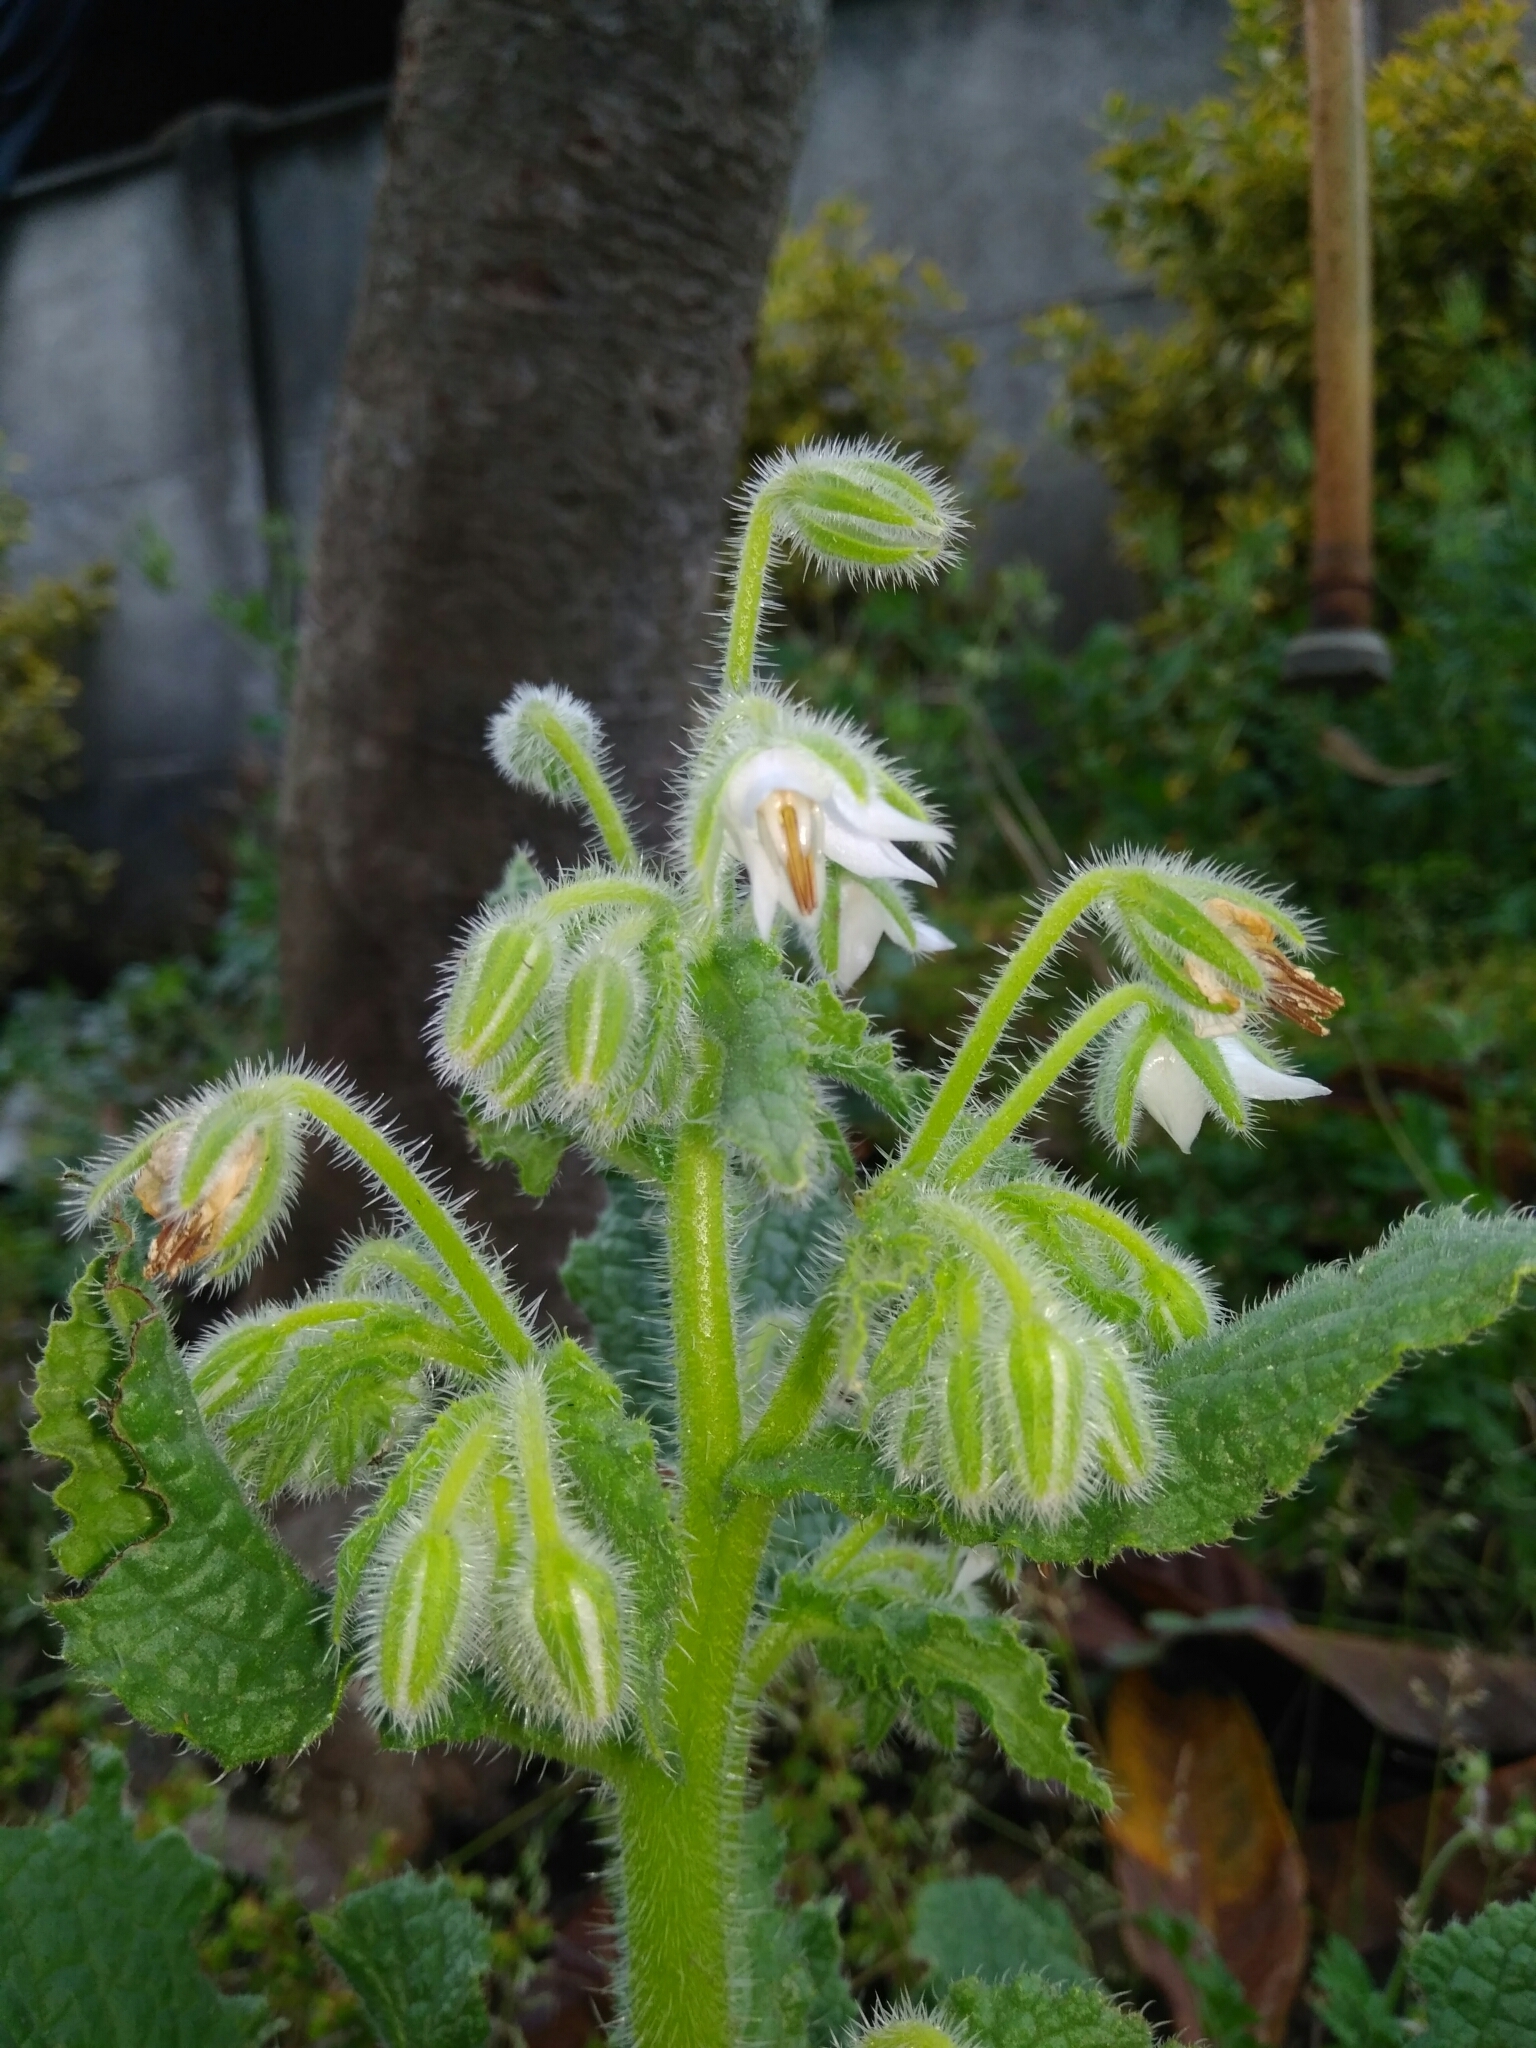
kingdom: Plantae
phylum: Tracheophyta
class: Magnoliopsida
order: Boraginales
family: Boraginaceae
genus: Borago
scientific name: Borago officinalis
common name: Borage
